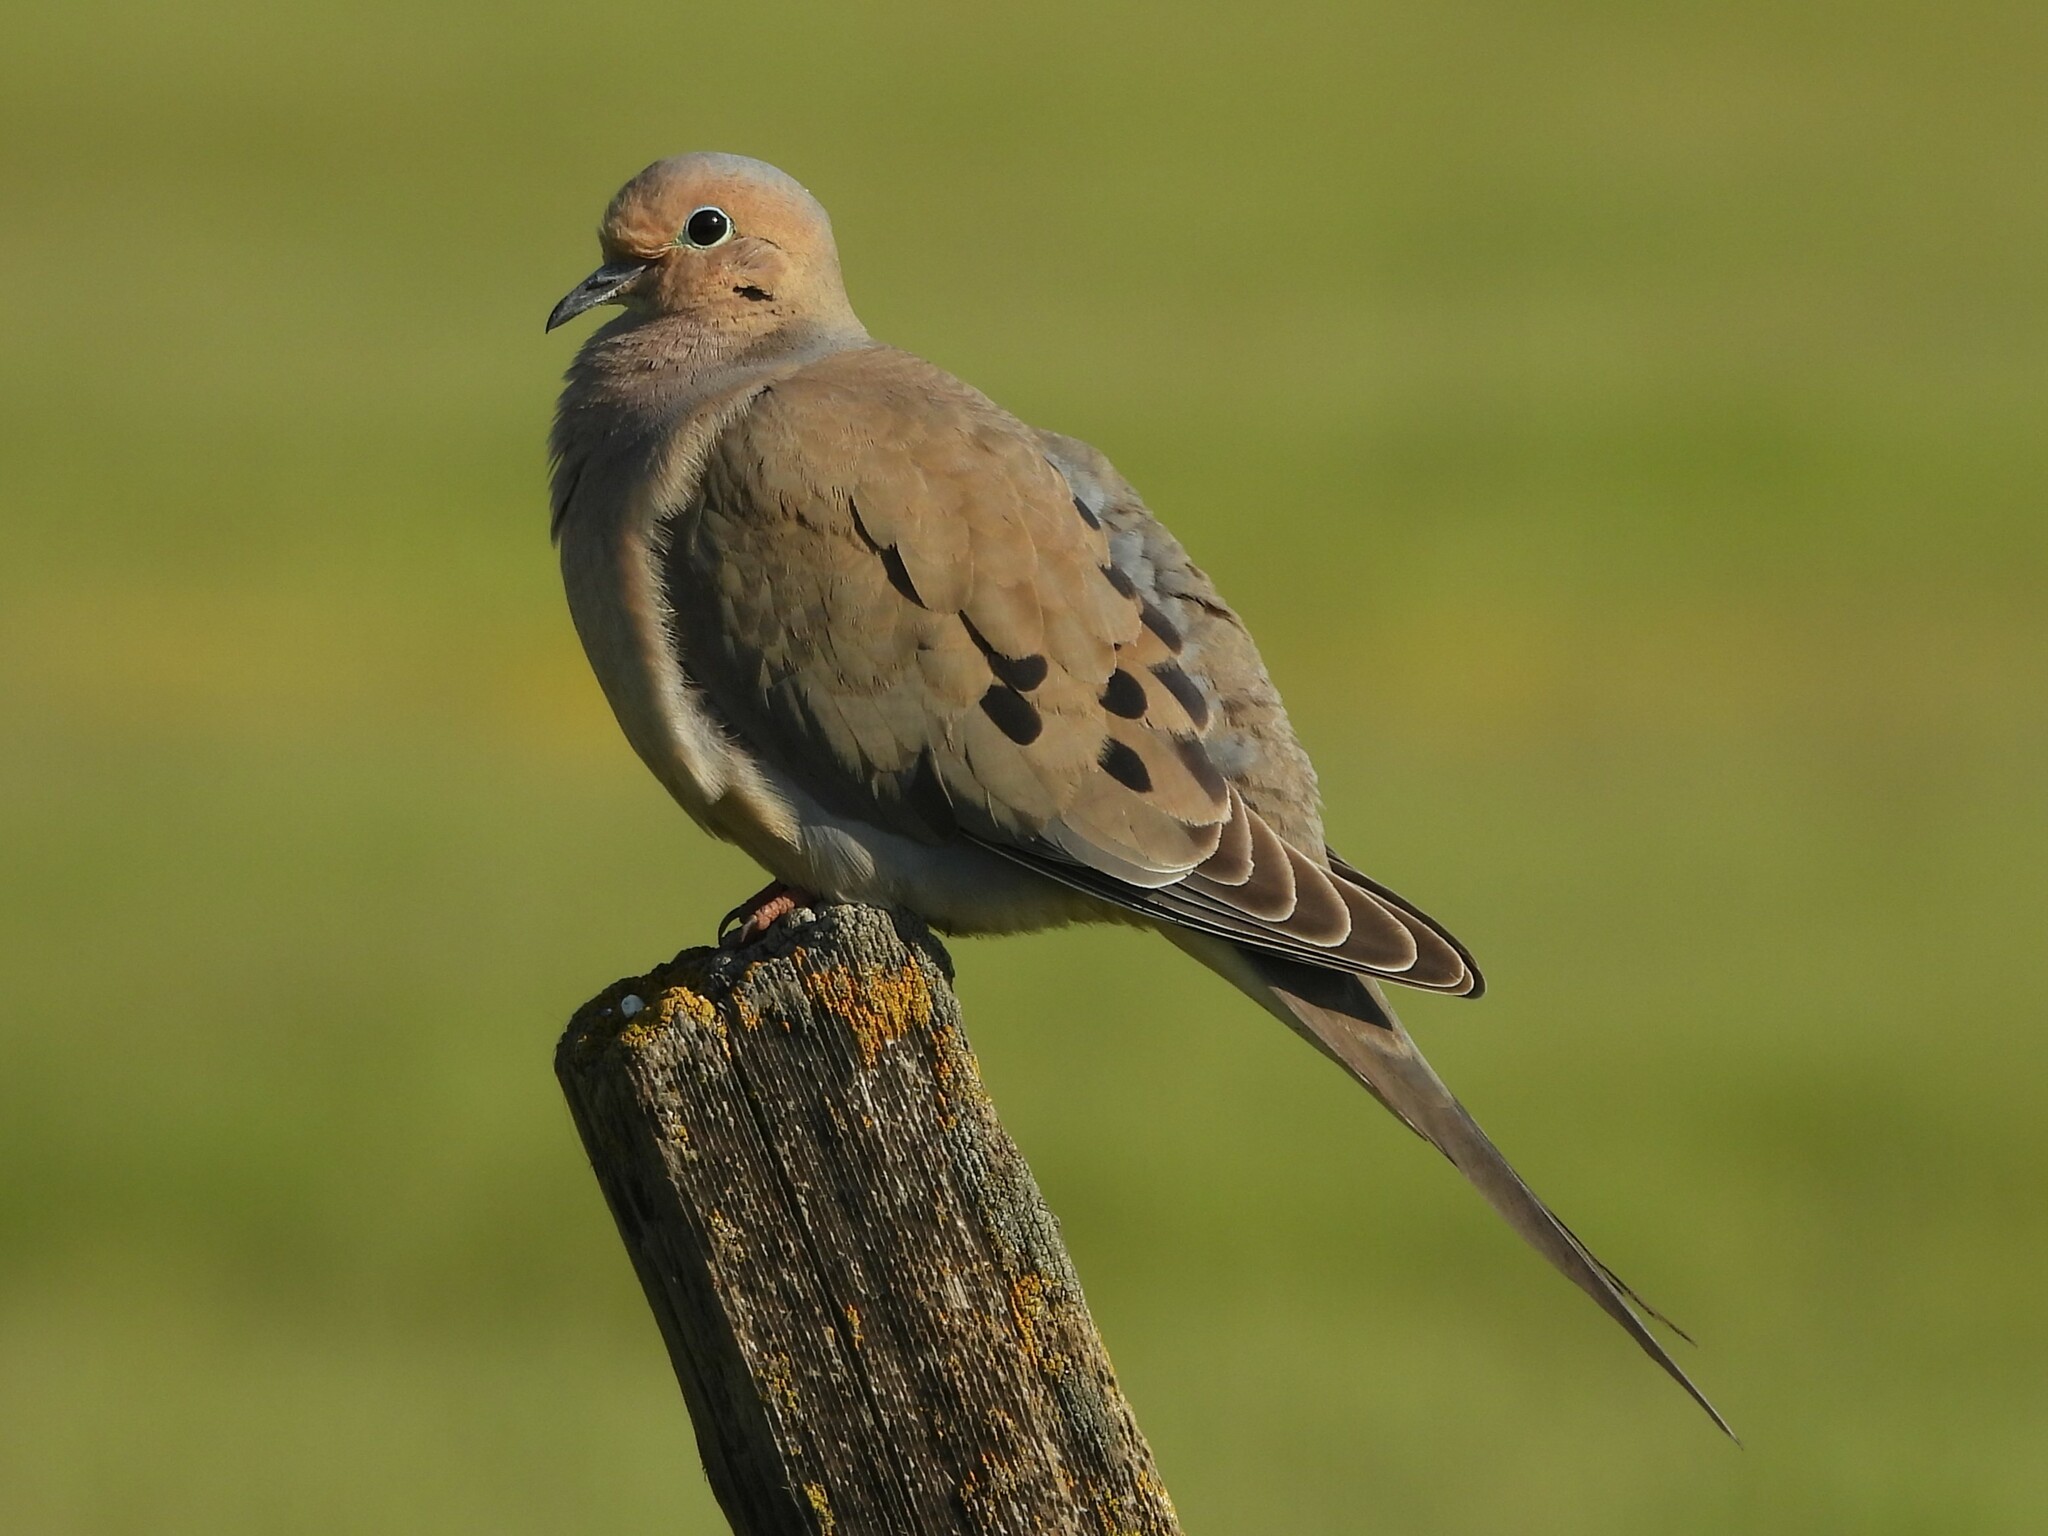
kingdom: Animalia
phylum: Chordata
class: Aves
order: Columbiformes
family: Columbidae
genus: Zenaida
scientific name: Zenaida macroura
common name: Mourning dove
